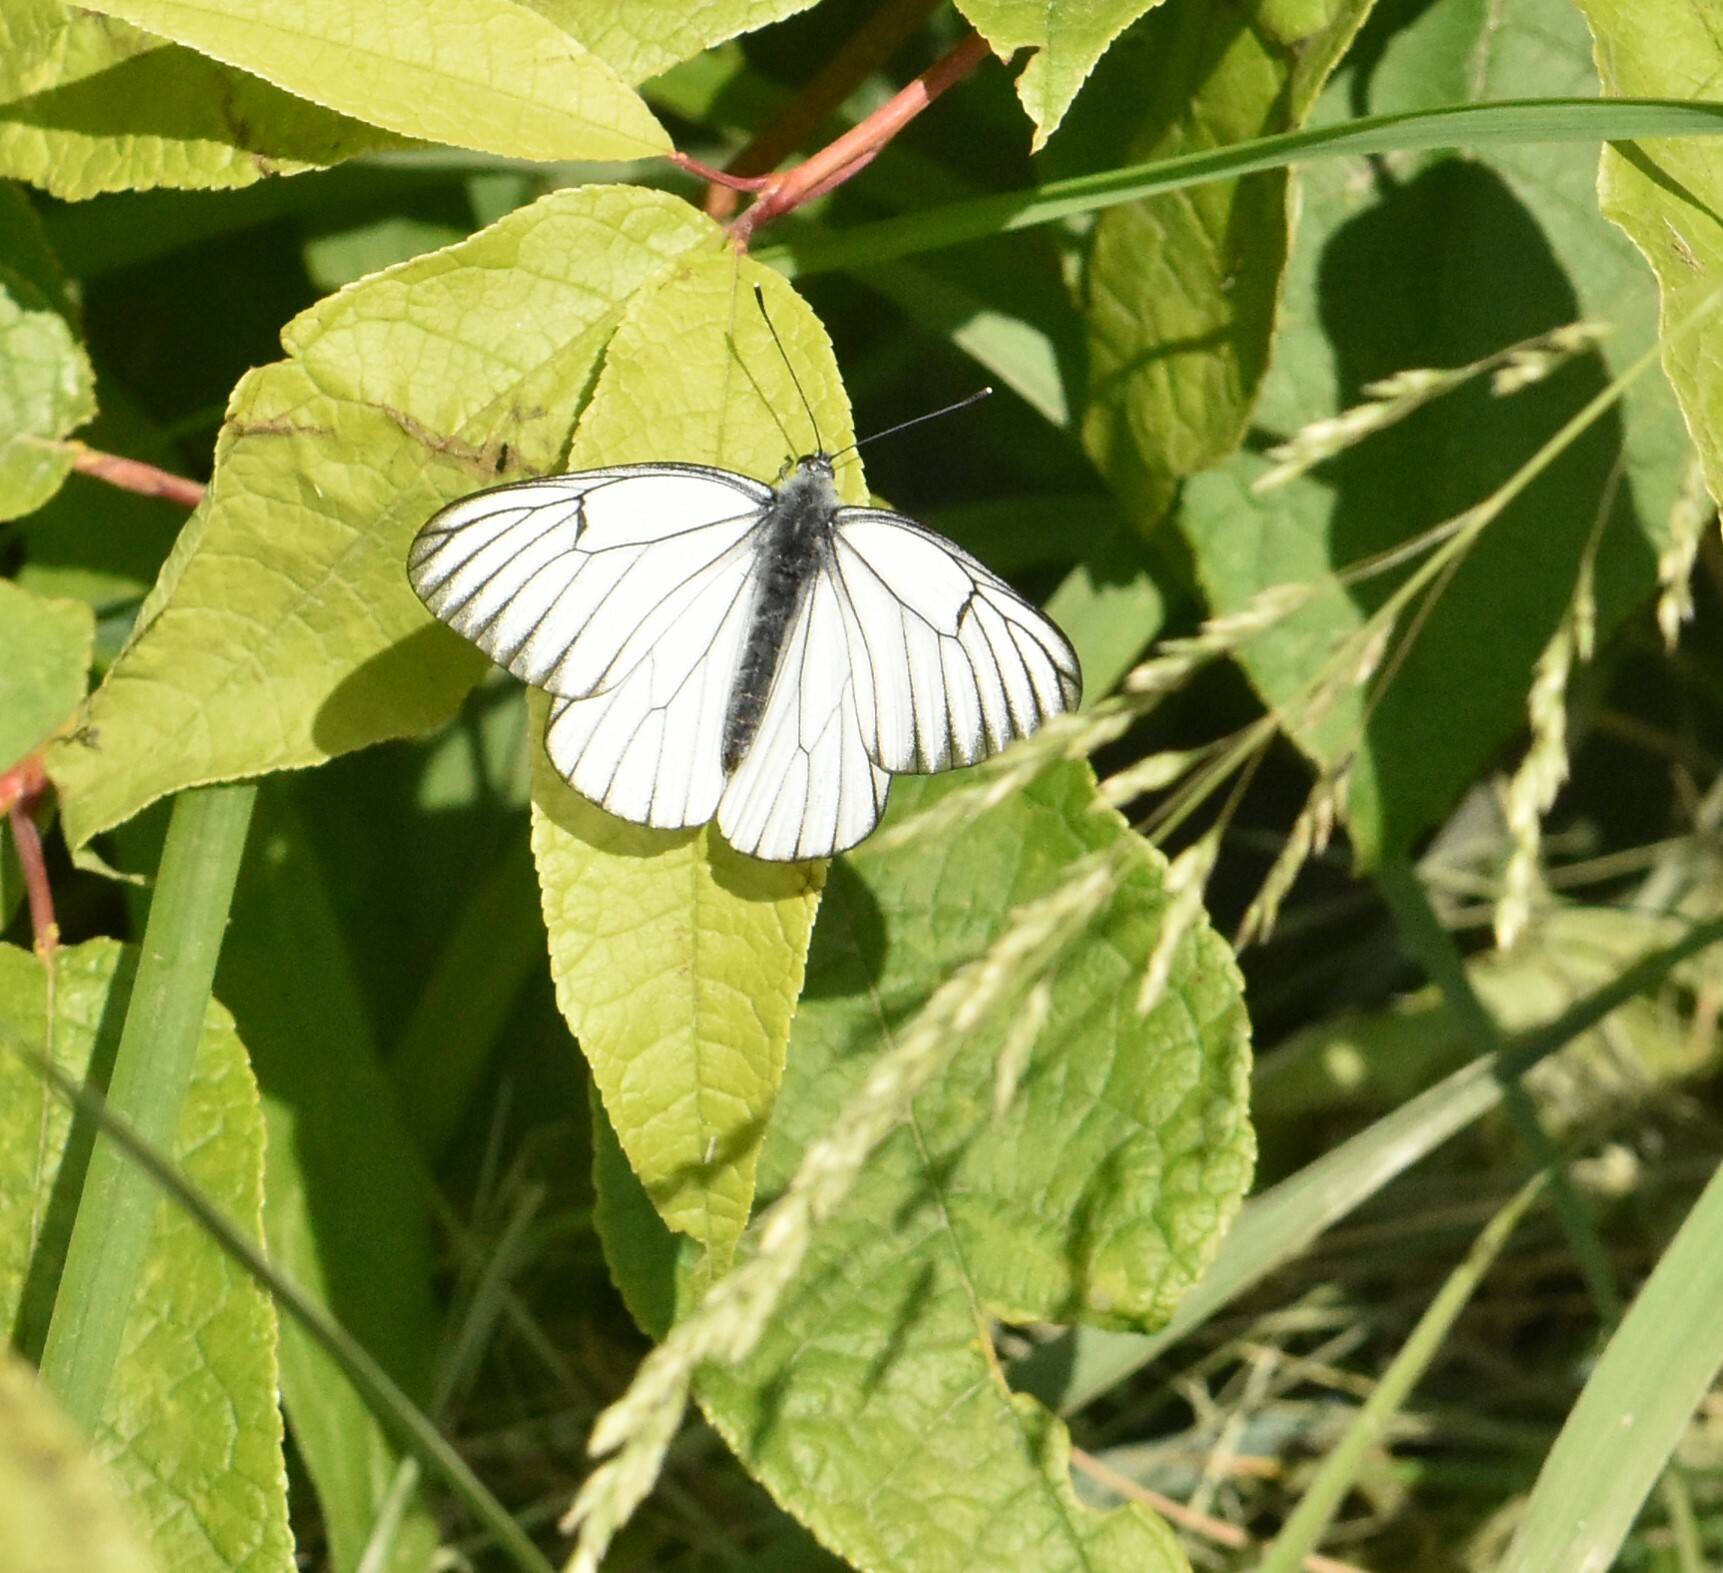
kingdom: Animalia
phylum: Arthropoda
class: Insecta
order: Lepidoptera
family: Pieridae
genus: Aporia
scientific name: Aporia crataegi
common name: Black-veined white
